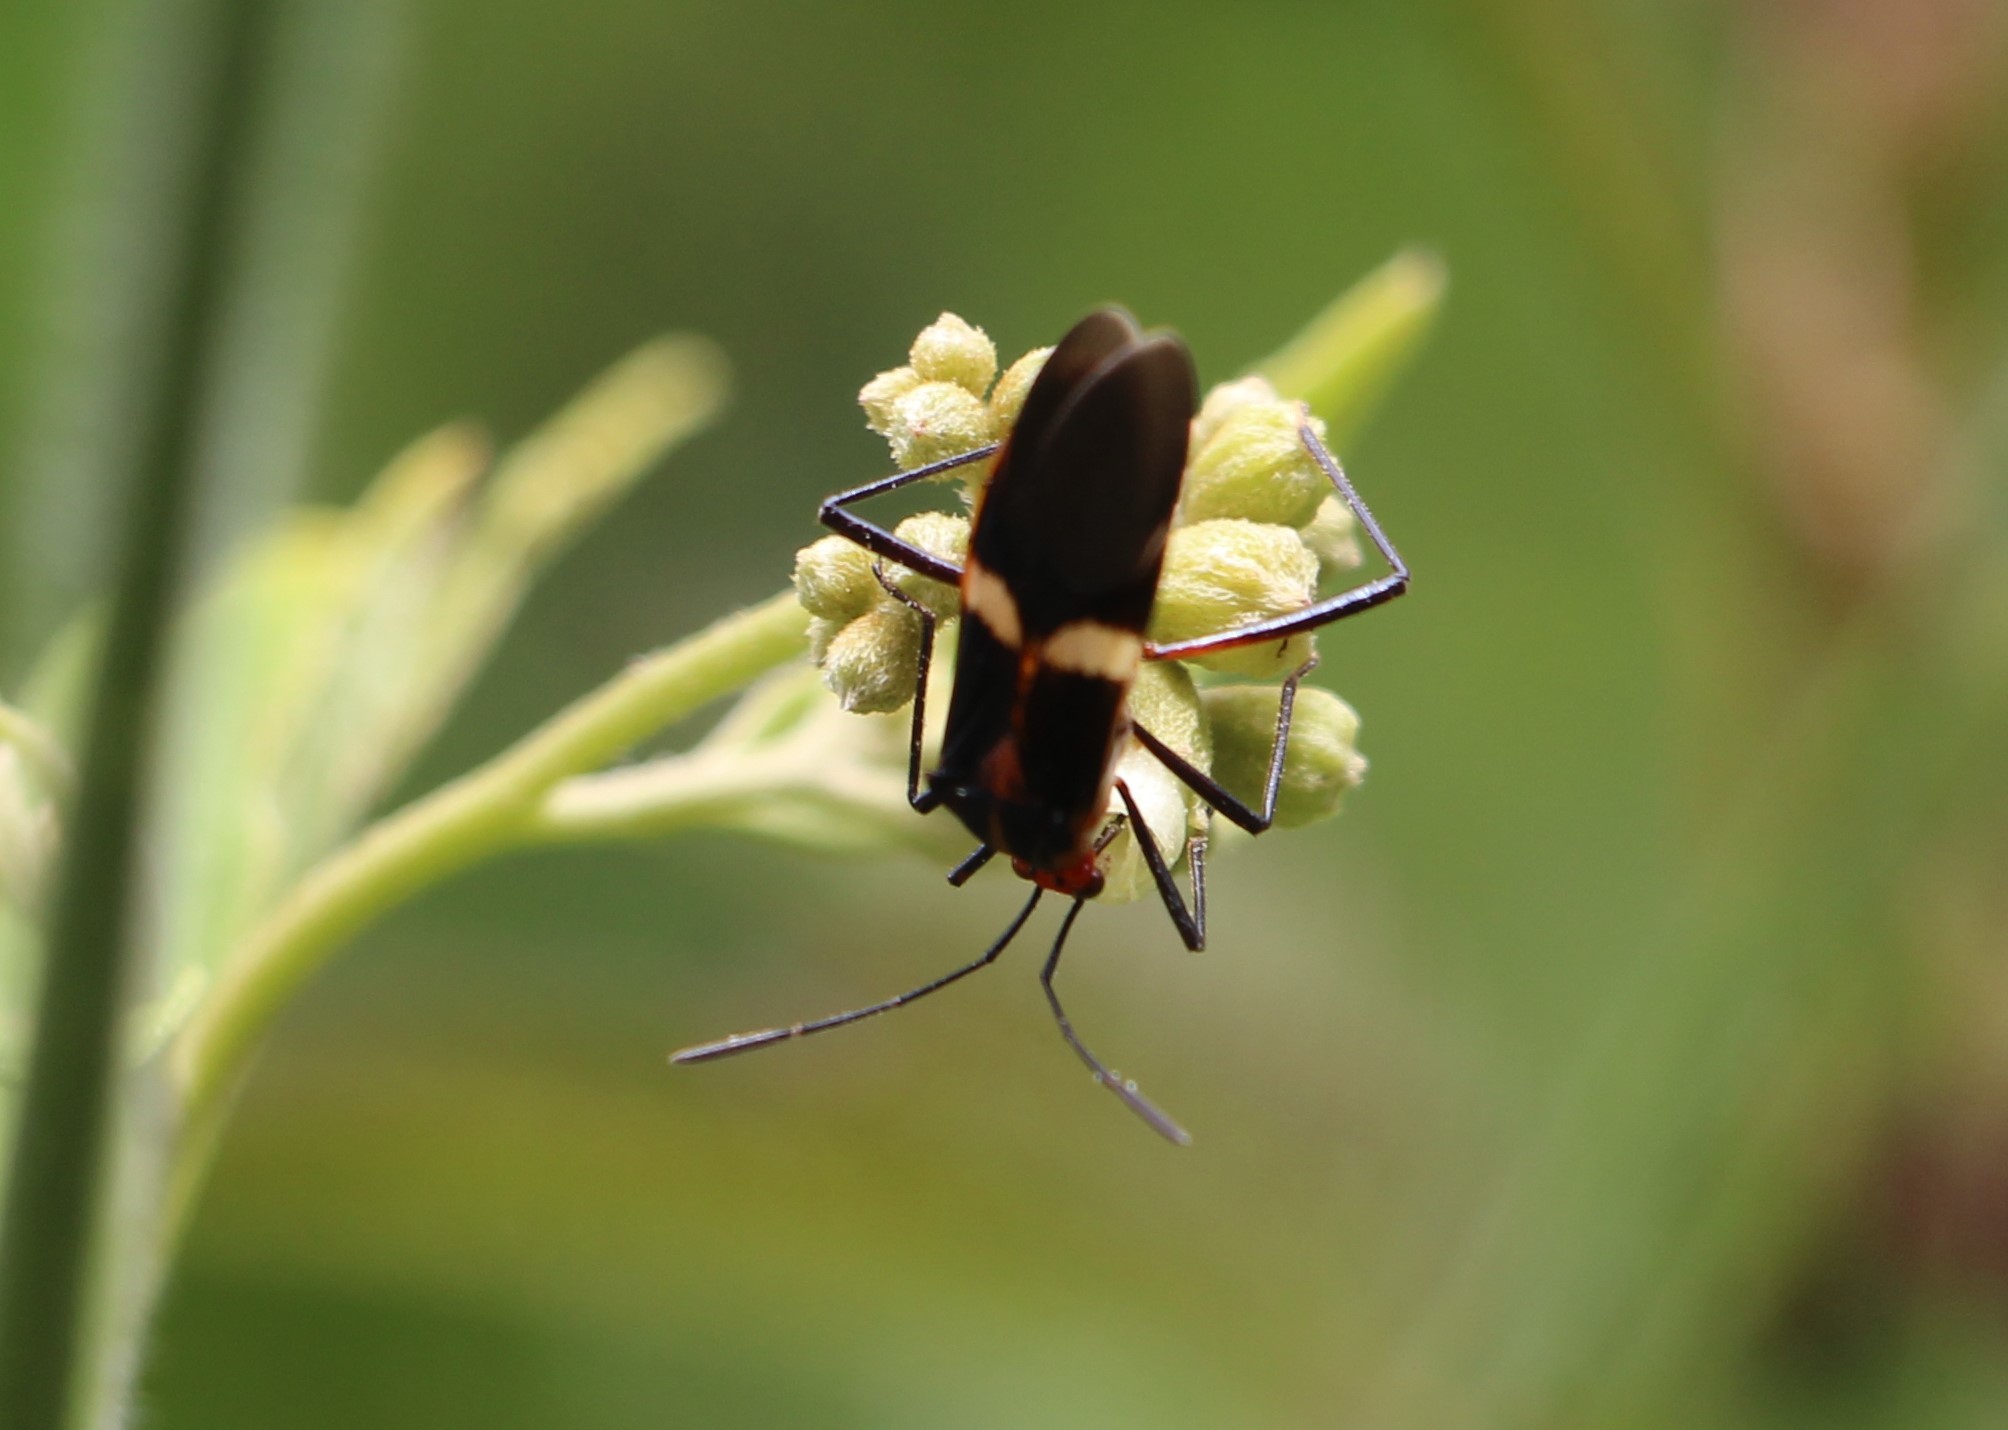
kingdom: Animalia
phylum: Arthropoda
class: Insecta
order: Hemiptera
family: Coreidae
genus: Hypselonotus
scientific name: Hypselonotus interruptus
